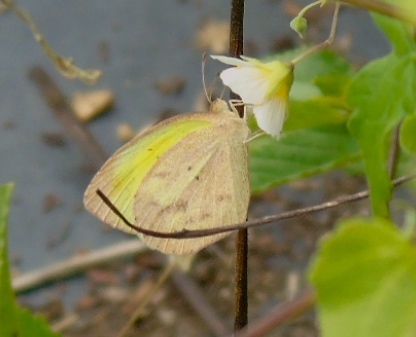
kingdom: Animalia
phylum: Arthropoda
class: Insecta
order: Lepidoptera
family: Pieridae
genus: Eurema
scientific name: Eurema daira
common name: Barred sulphur
